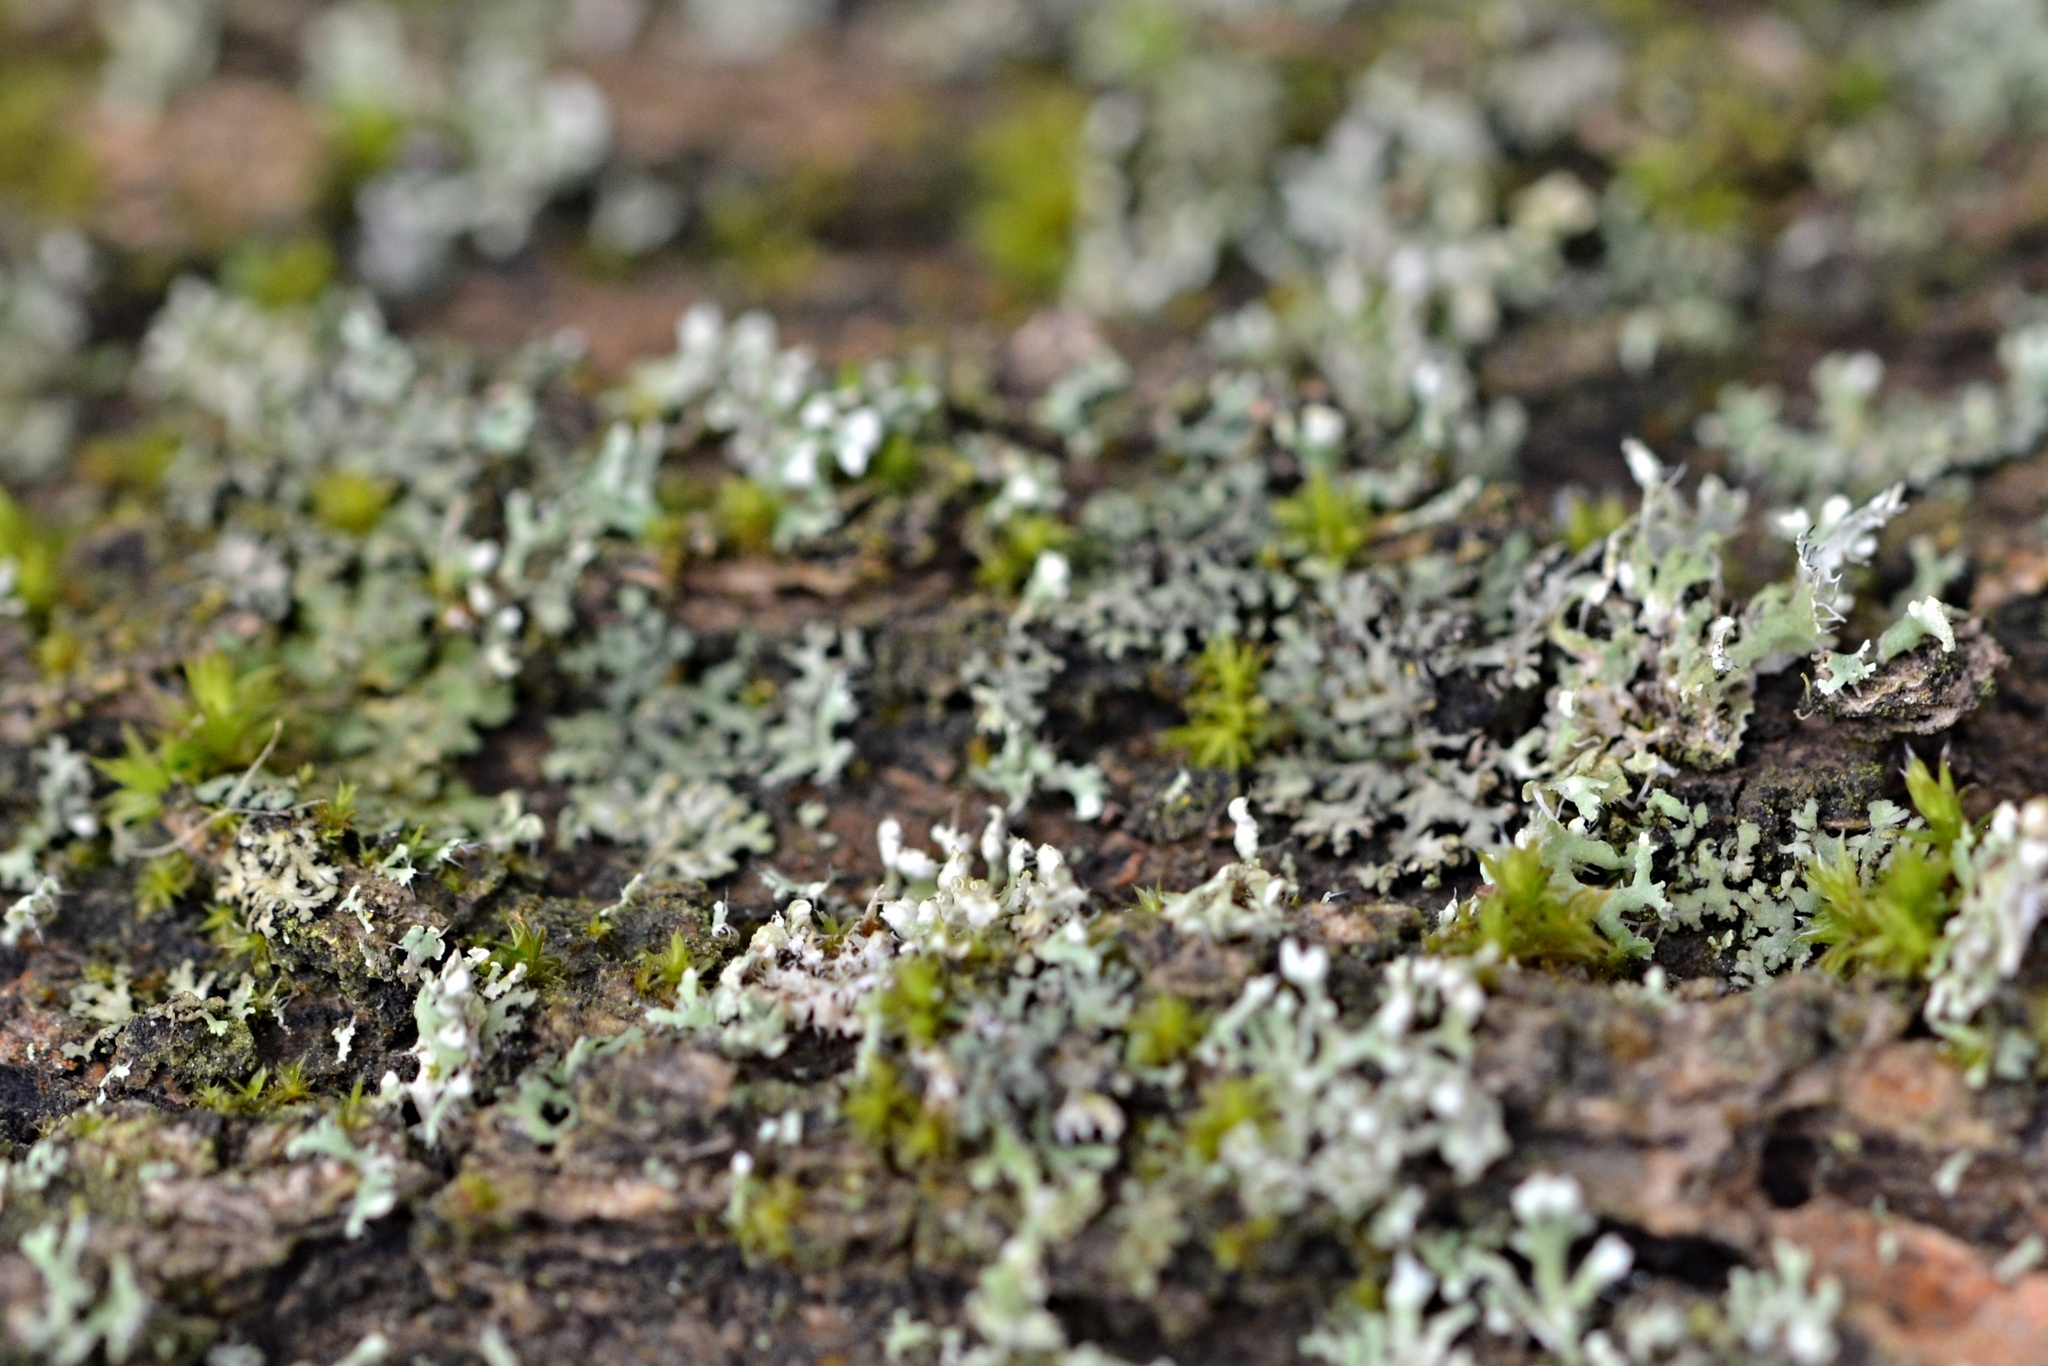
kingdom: Fungi
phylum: Ascomycota
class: Lecanoromycetes
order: Caliciales
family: Physciaceae
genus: Physcia
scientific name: Physcia adscendens
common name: Hooded rosette lichen
